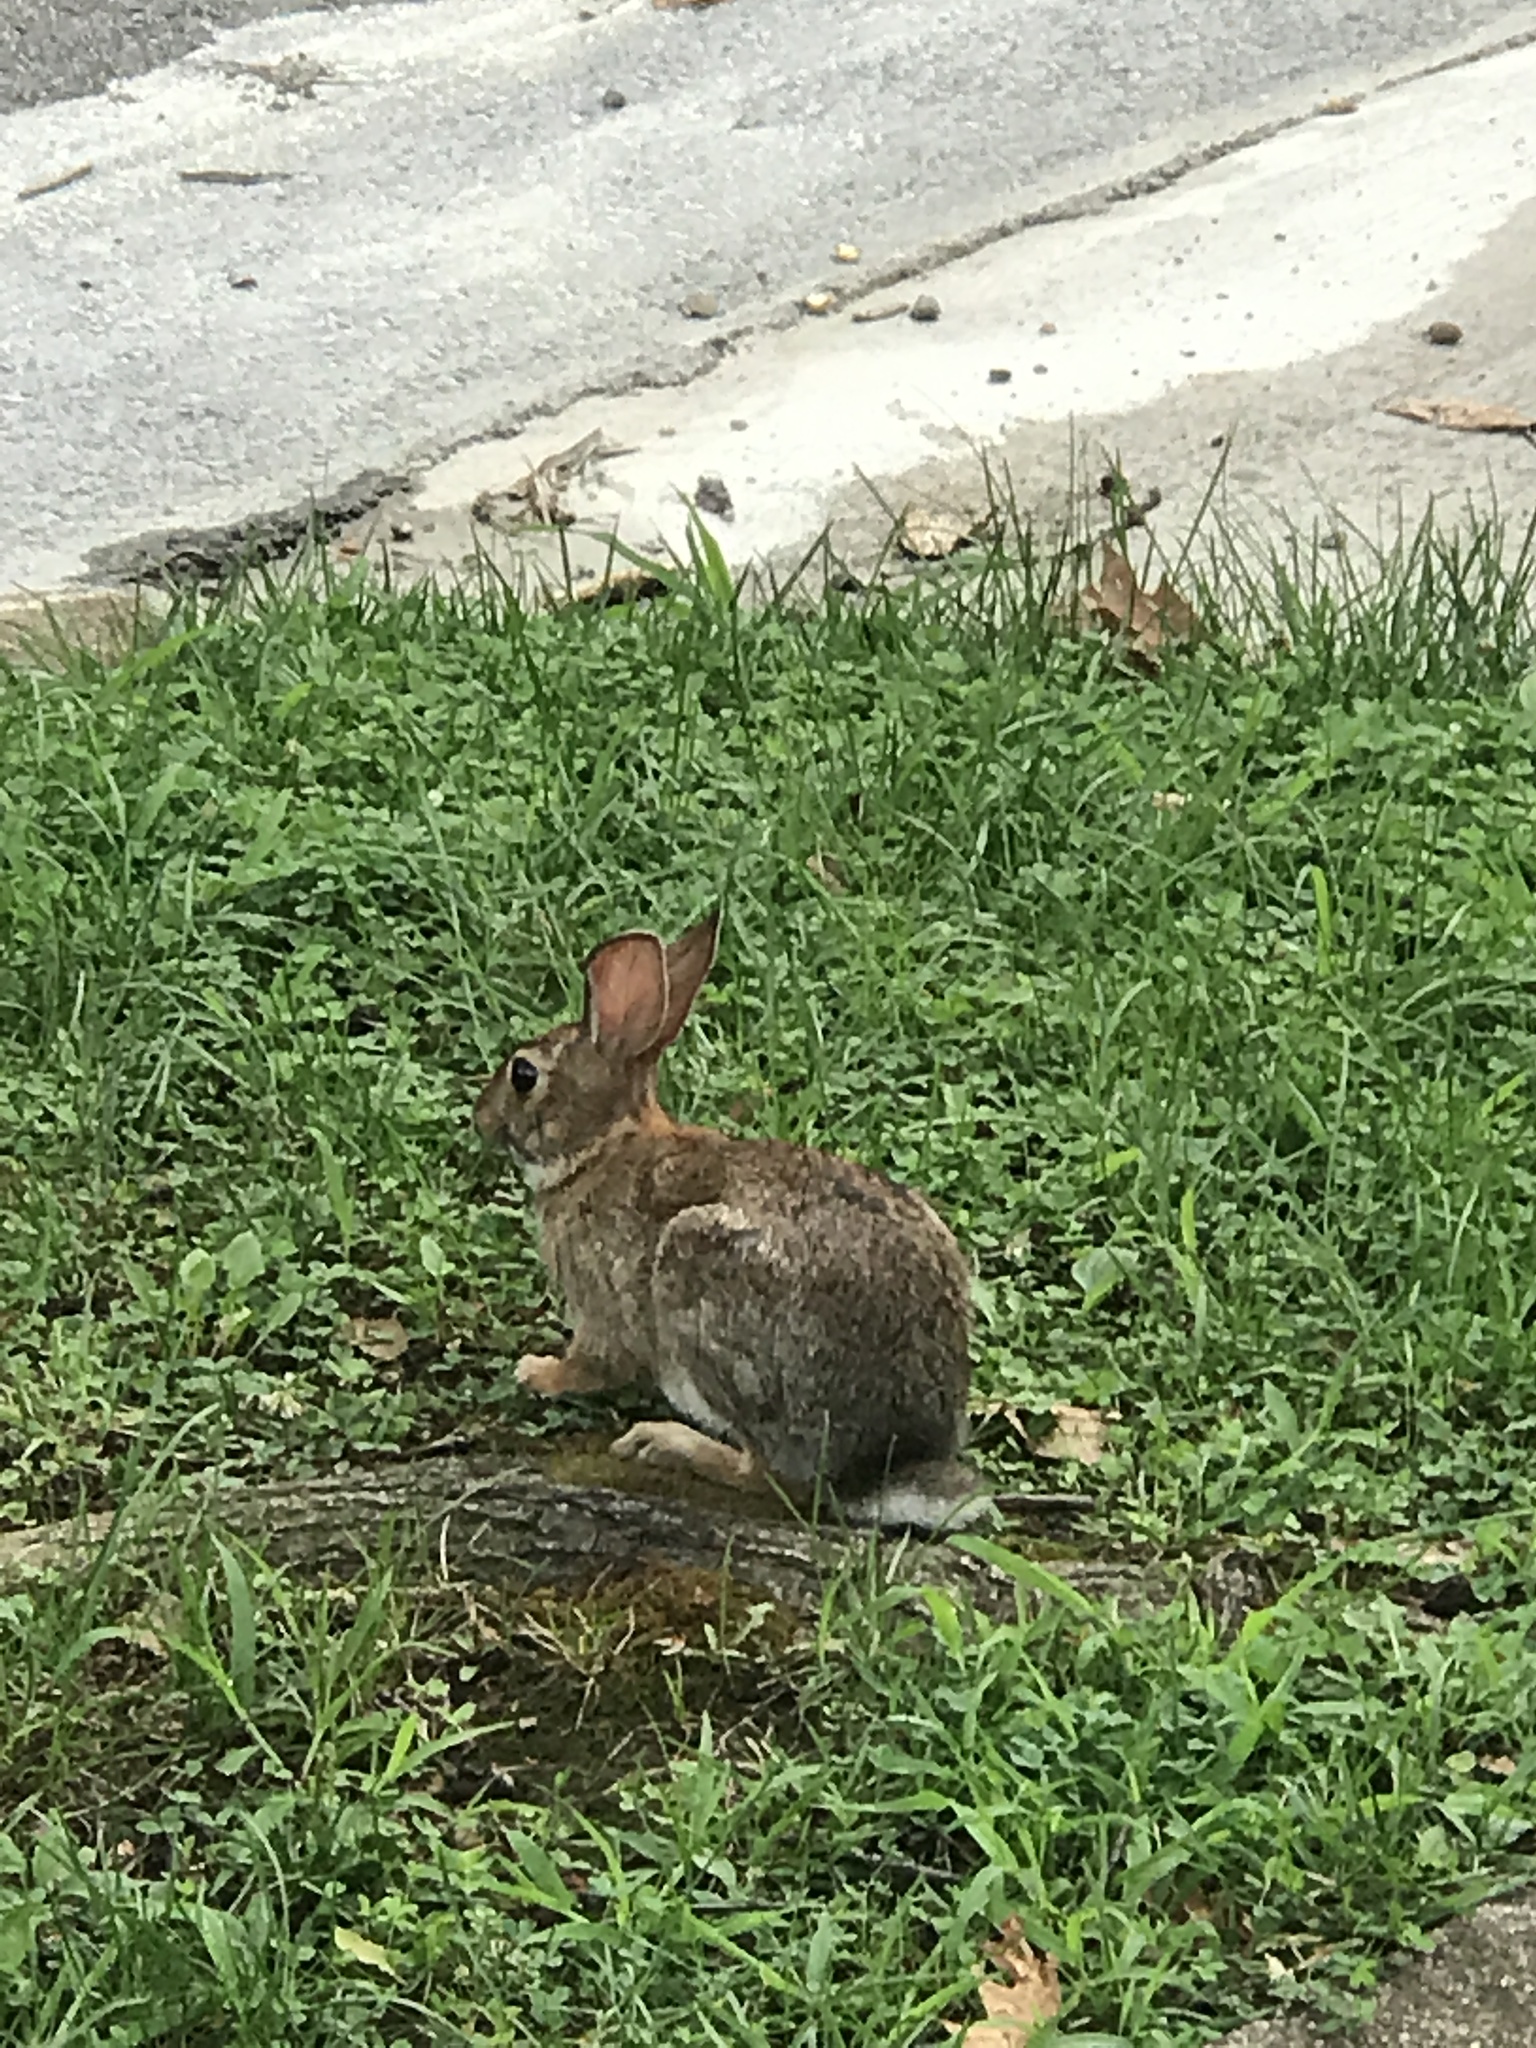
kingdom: Animalia
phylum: Chordata
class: Mammalia
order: Lagomorpha
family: Leporidae
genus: Sylvilagus
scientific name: Sylvilagus floridanus
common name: Eastern cottontail
